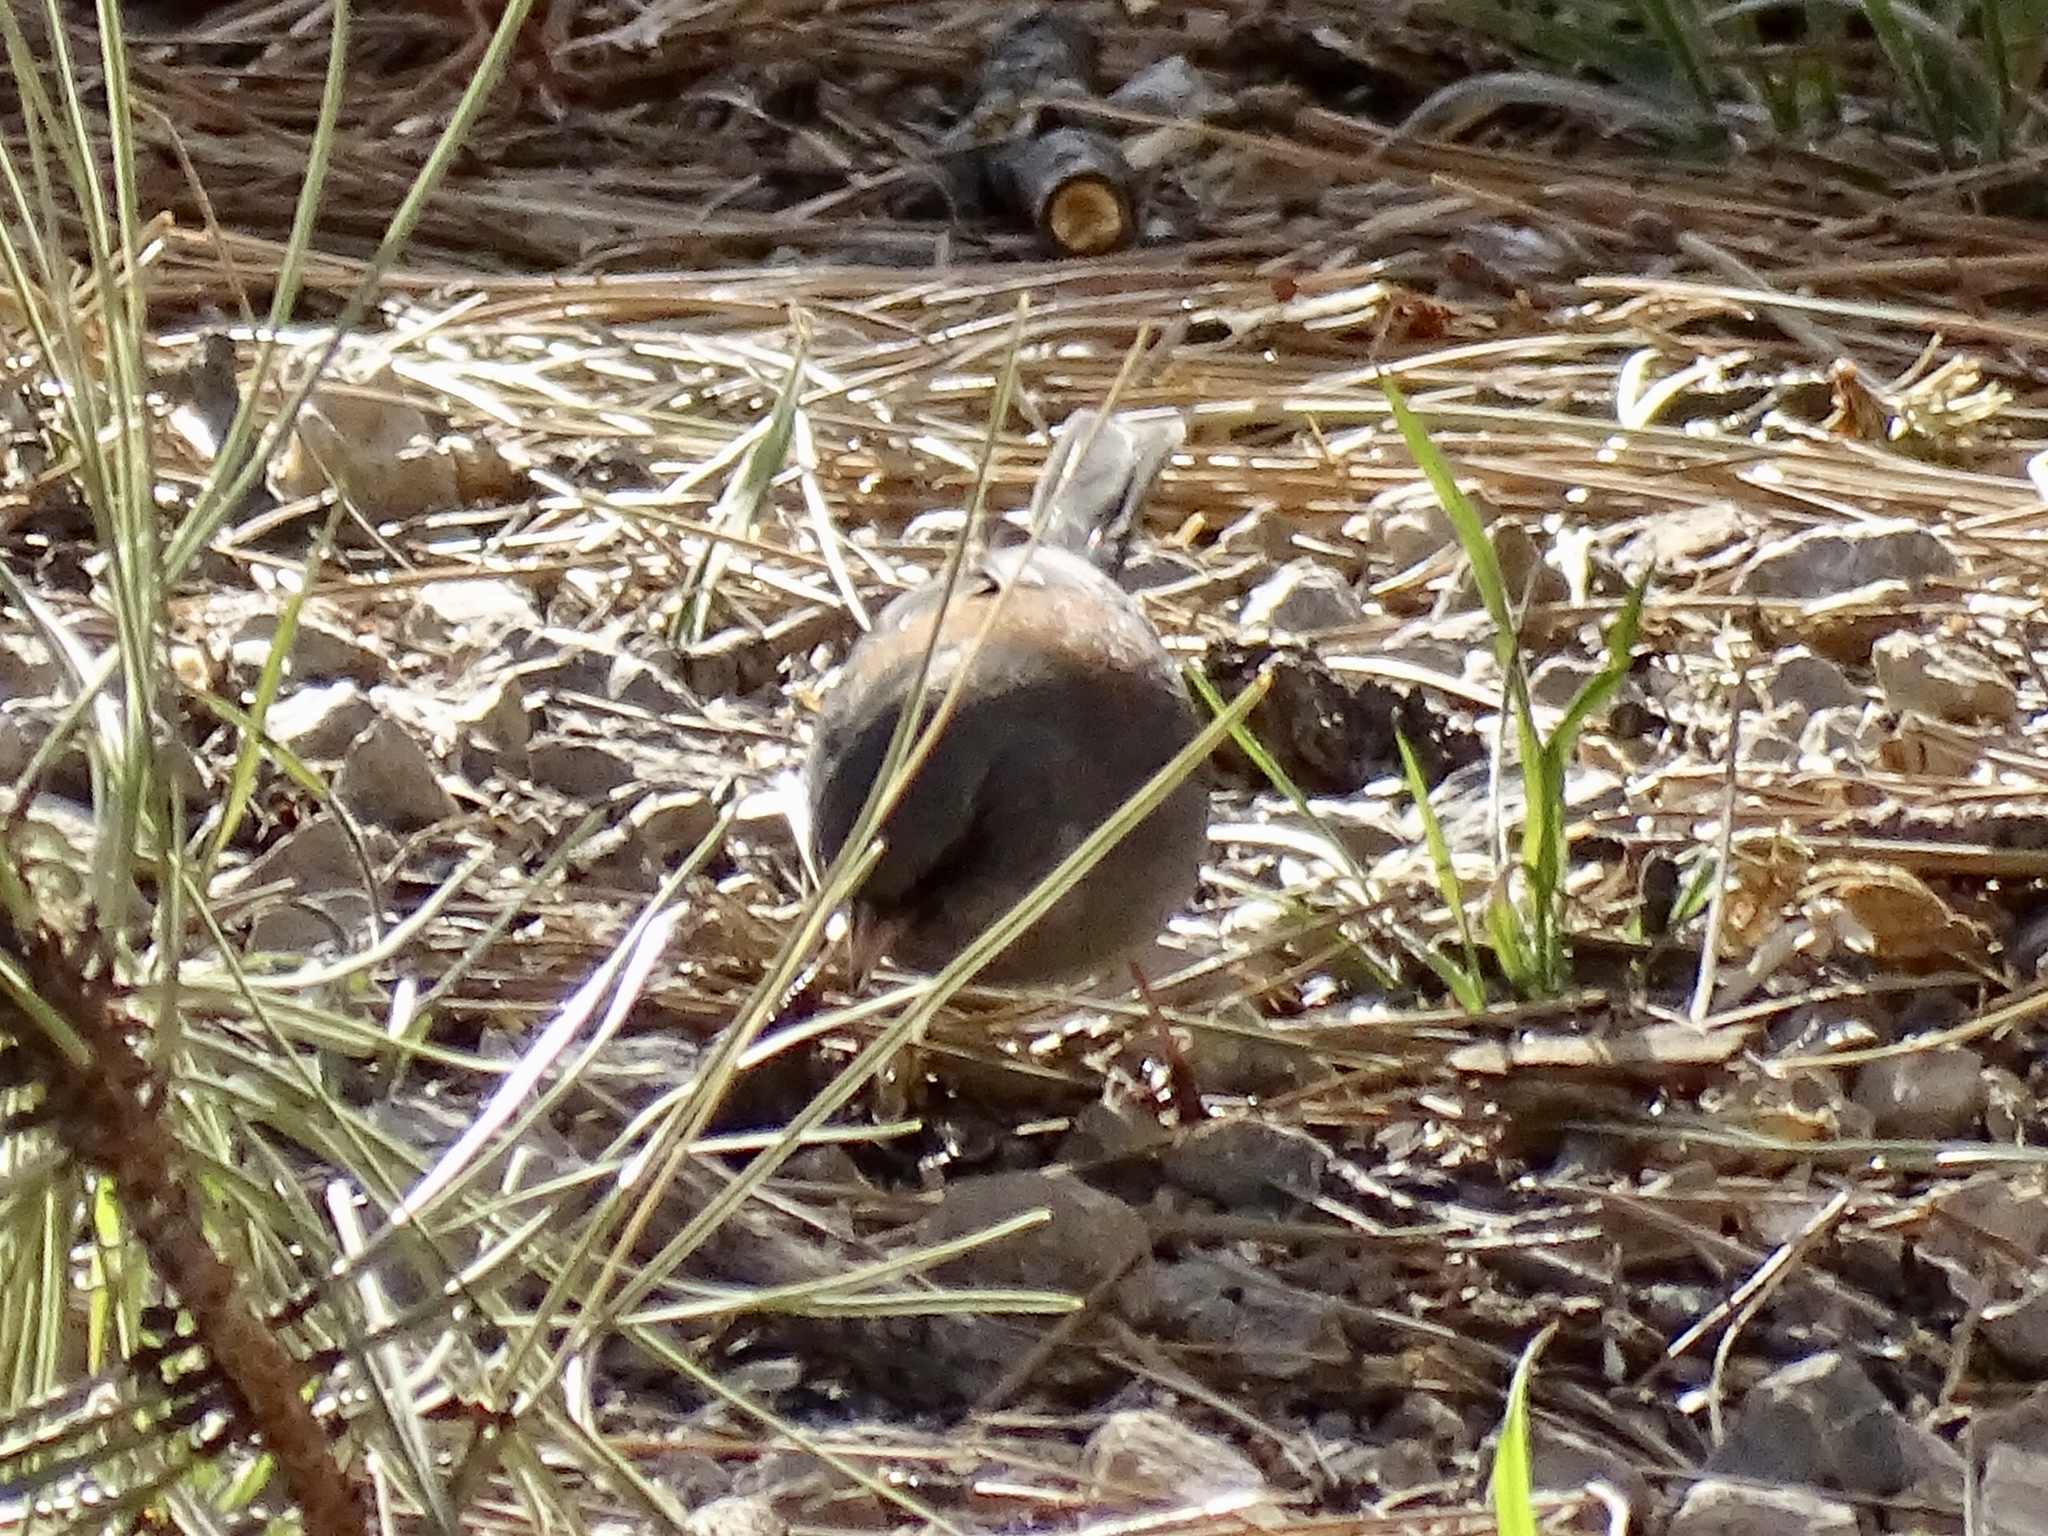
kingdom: Animalia
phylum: Chordata
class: Aves
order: Passeriformes
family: Passerellidae
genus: Junco
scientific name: Junco hyemalis
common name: Dark-eyed junco
